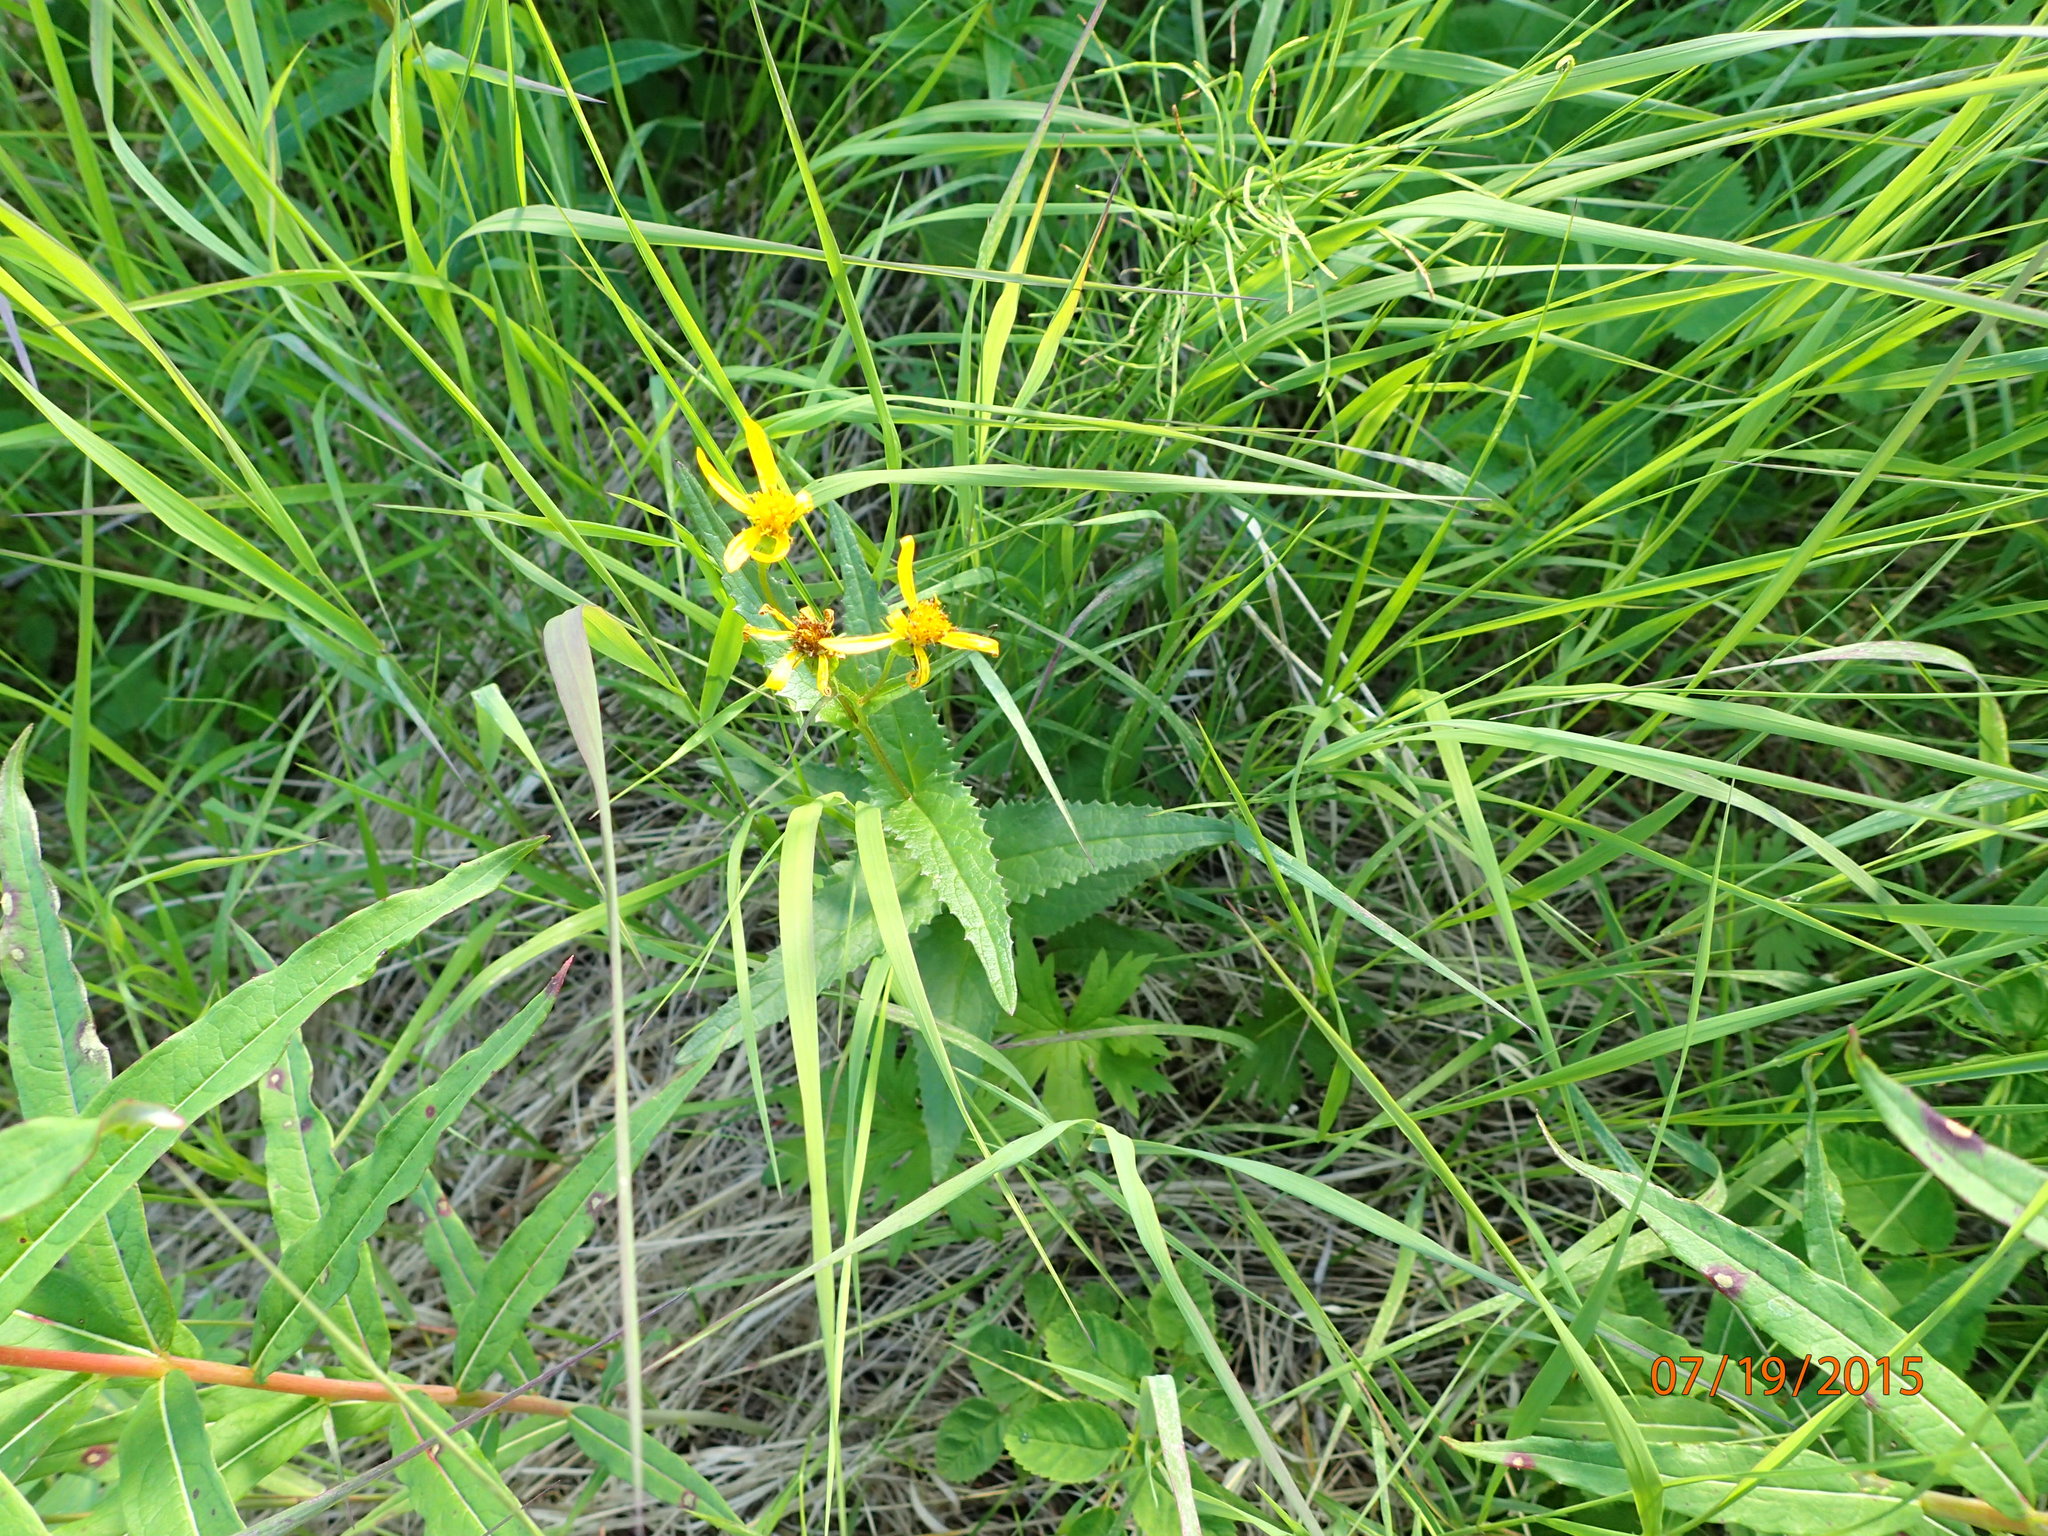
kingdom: Plantae
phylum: Tracheophyta
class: Magnoliopsida
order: Asterales
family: Asteraceae
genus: Senecio
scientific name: Senecio triangularis
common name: Arrowleaf butterweed
